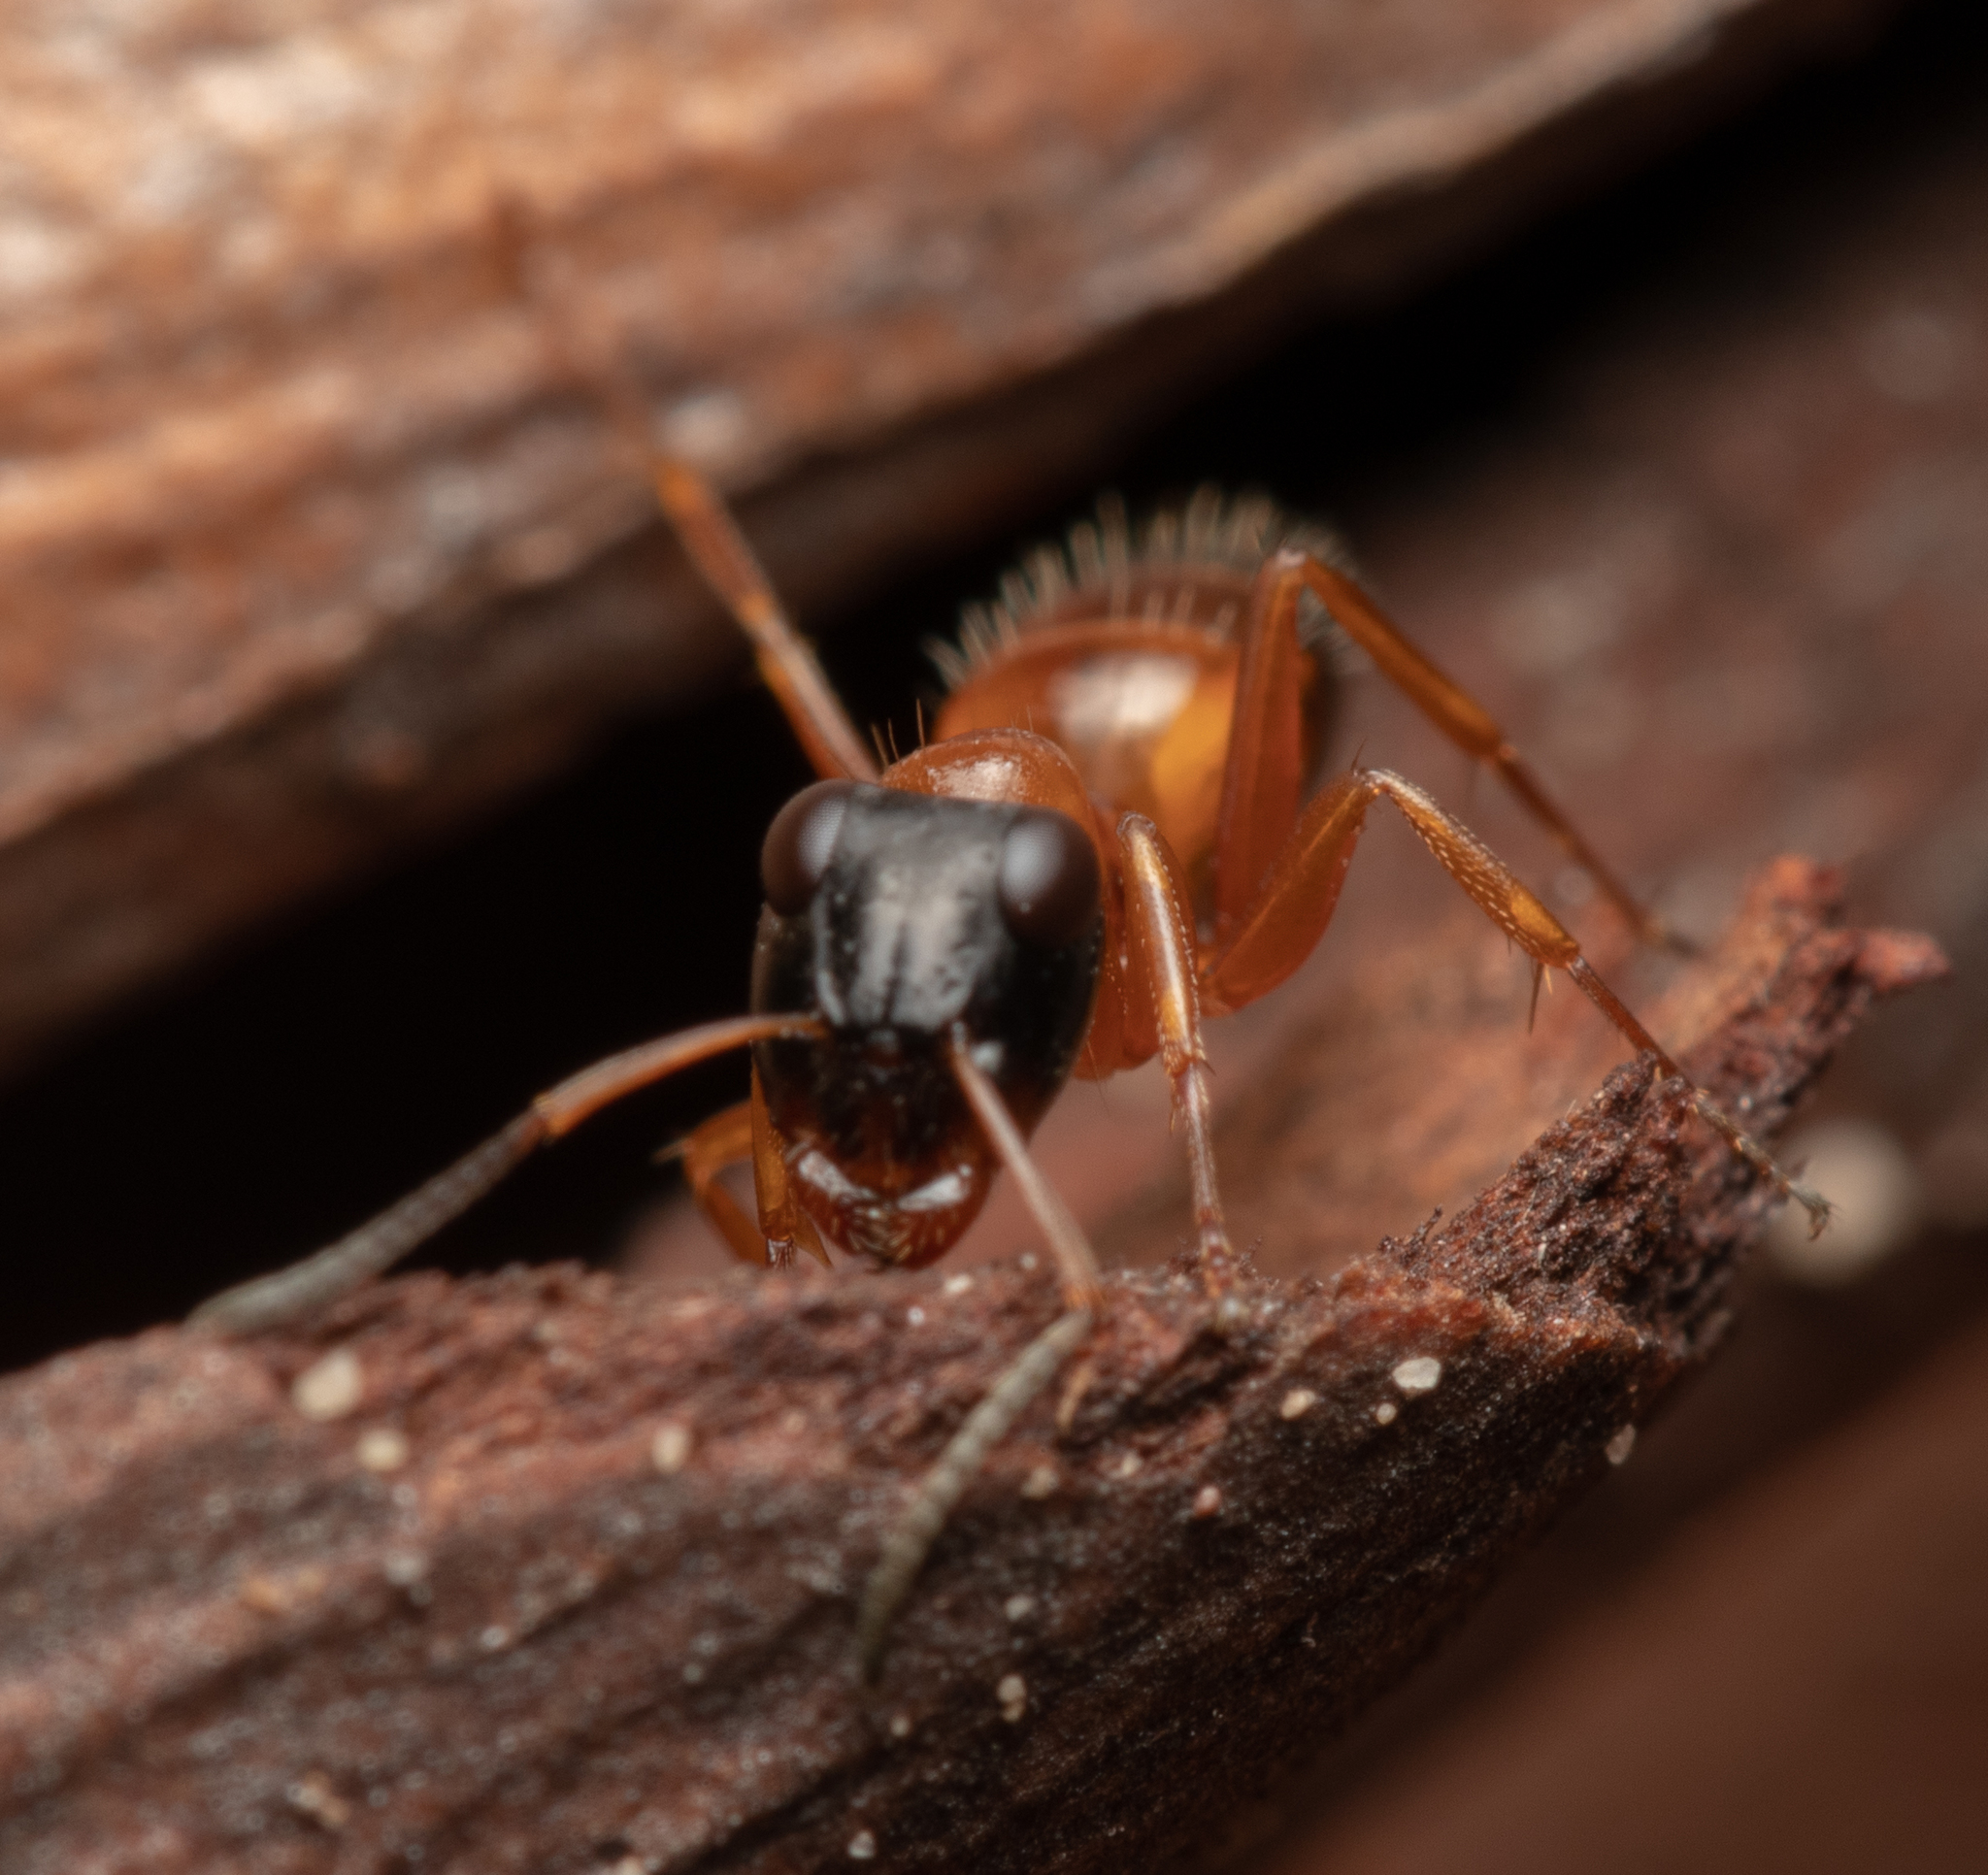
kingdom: Animalia
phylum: Arthropoda
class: Insecta
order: Hymenoptera
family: Formicidae
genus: Opisthopsis
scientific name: Opisthopsis rufithorax
